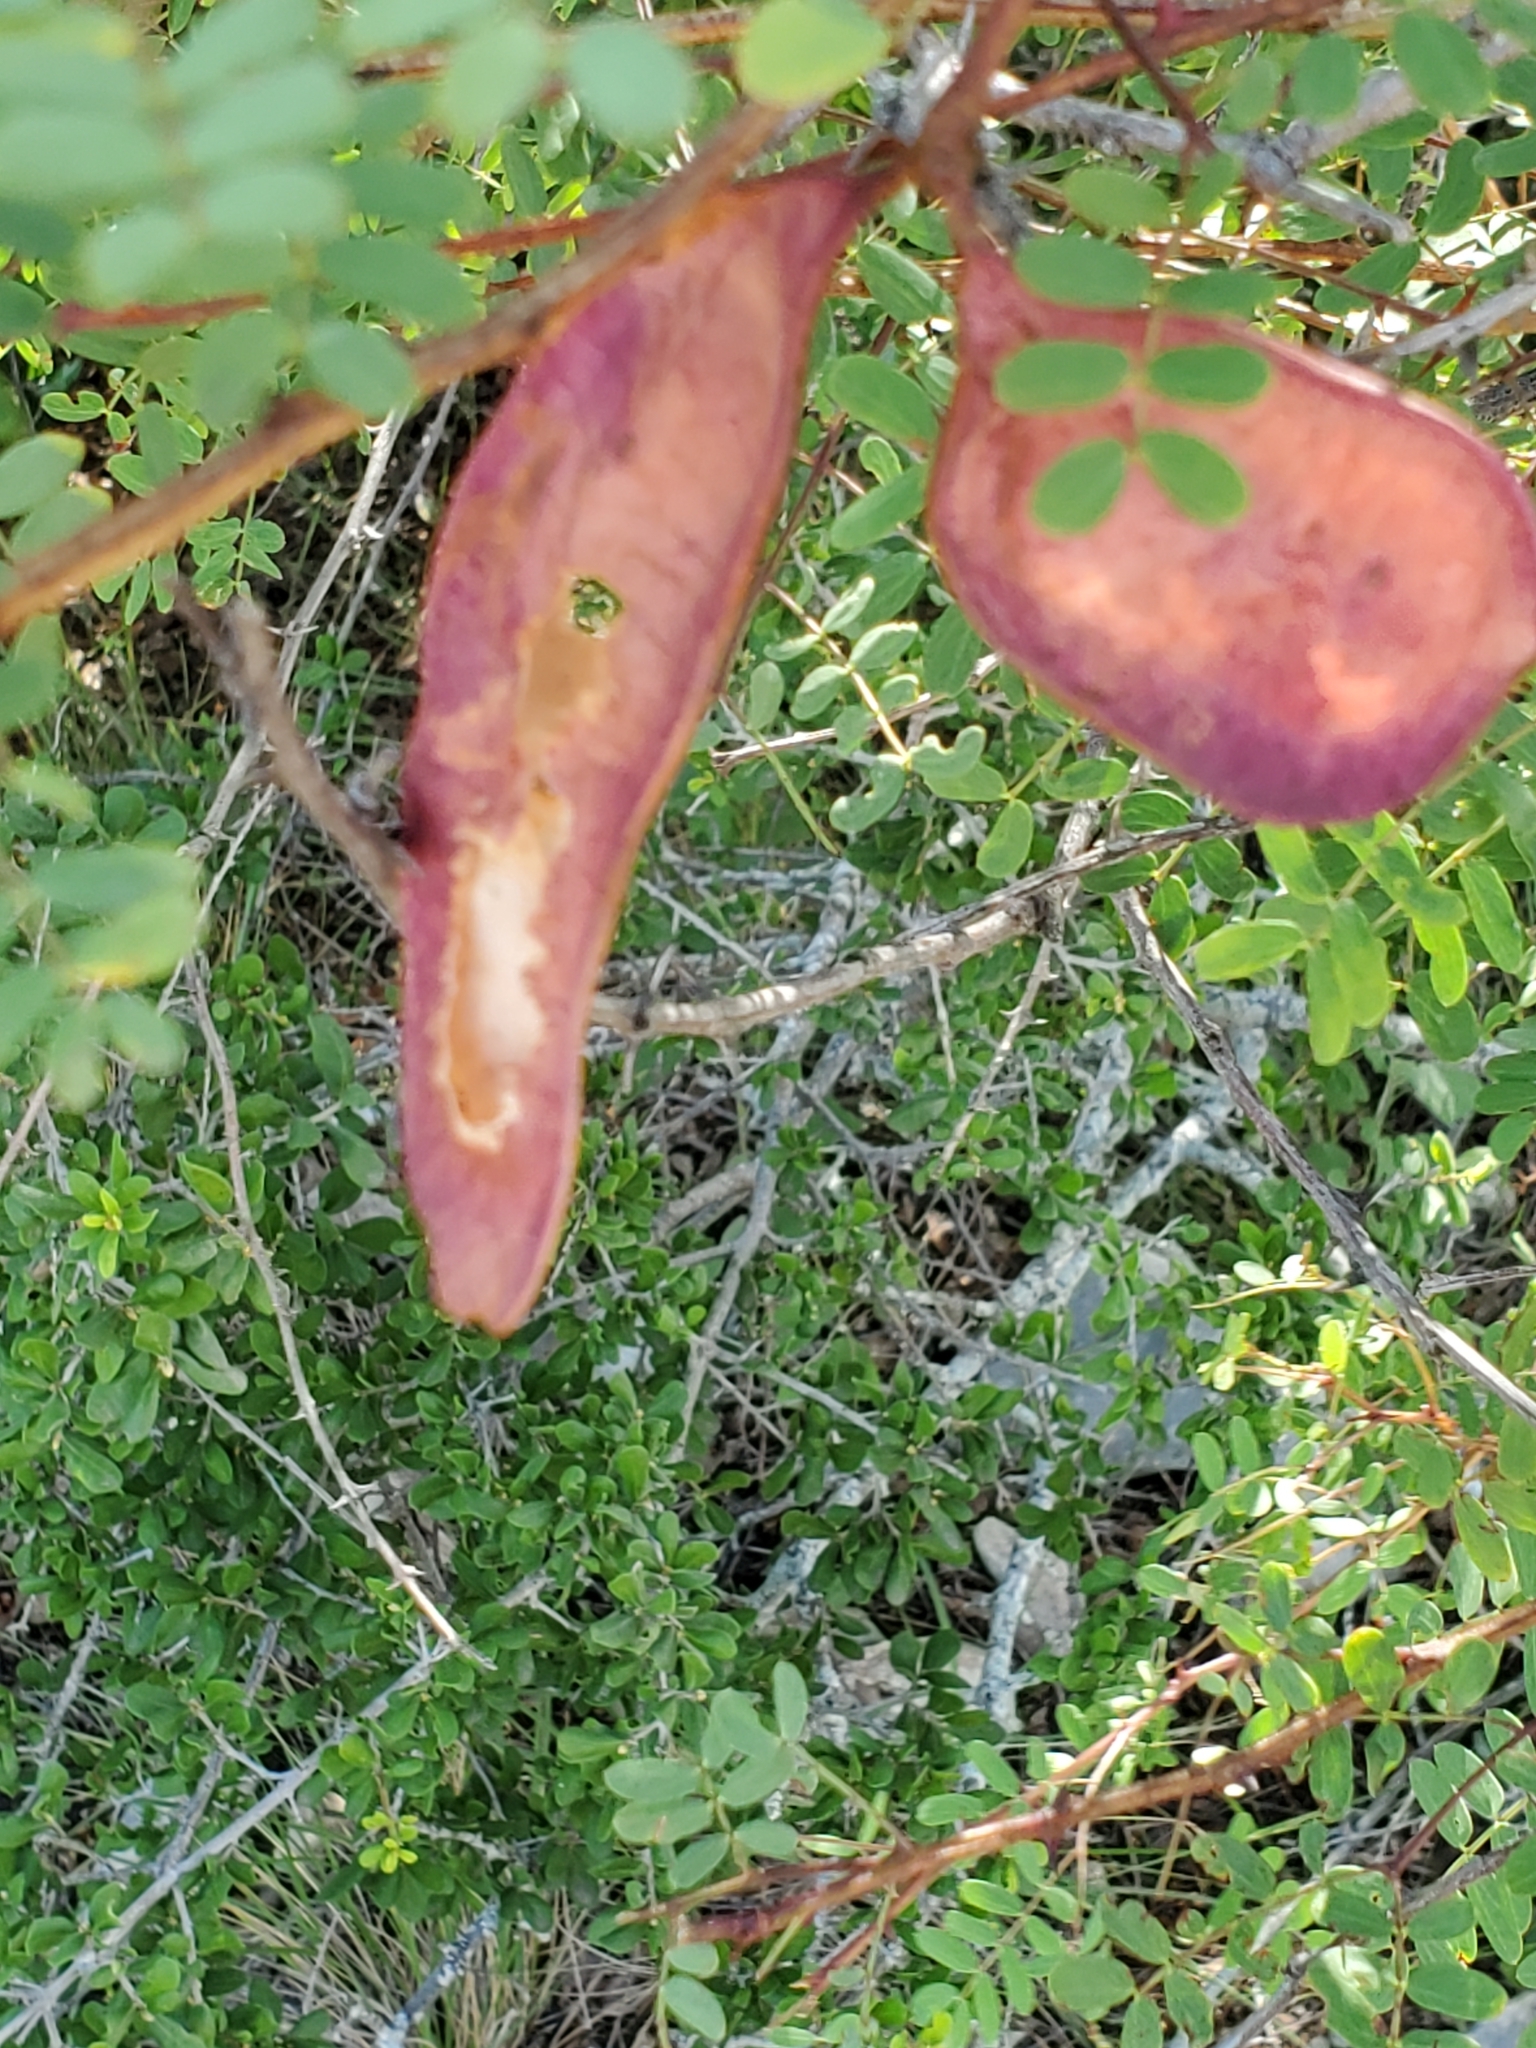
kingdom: Plantae
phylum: Tracheophyta
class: Magnoliopsida
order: Fabales
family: Fabaceae
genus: Senegalia
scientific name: Senegalia roemeriana
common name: Roemer's acacia
